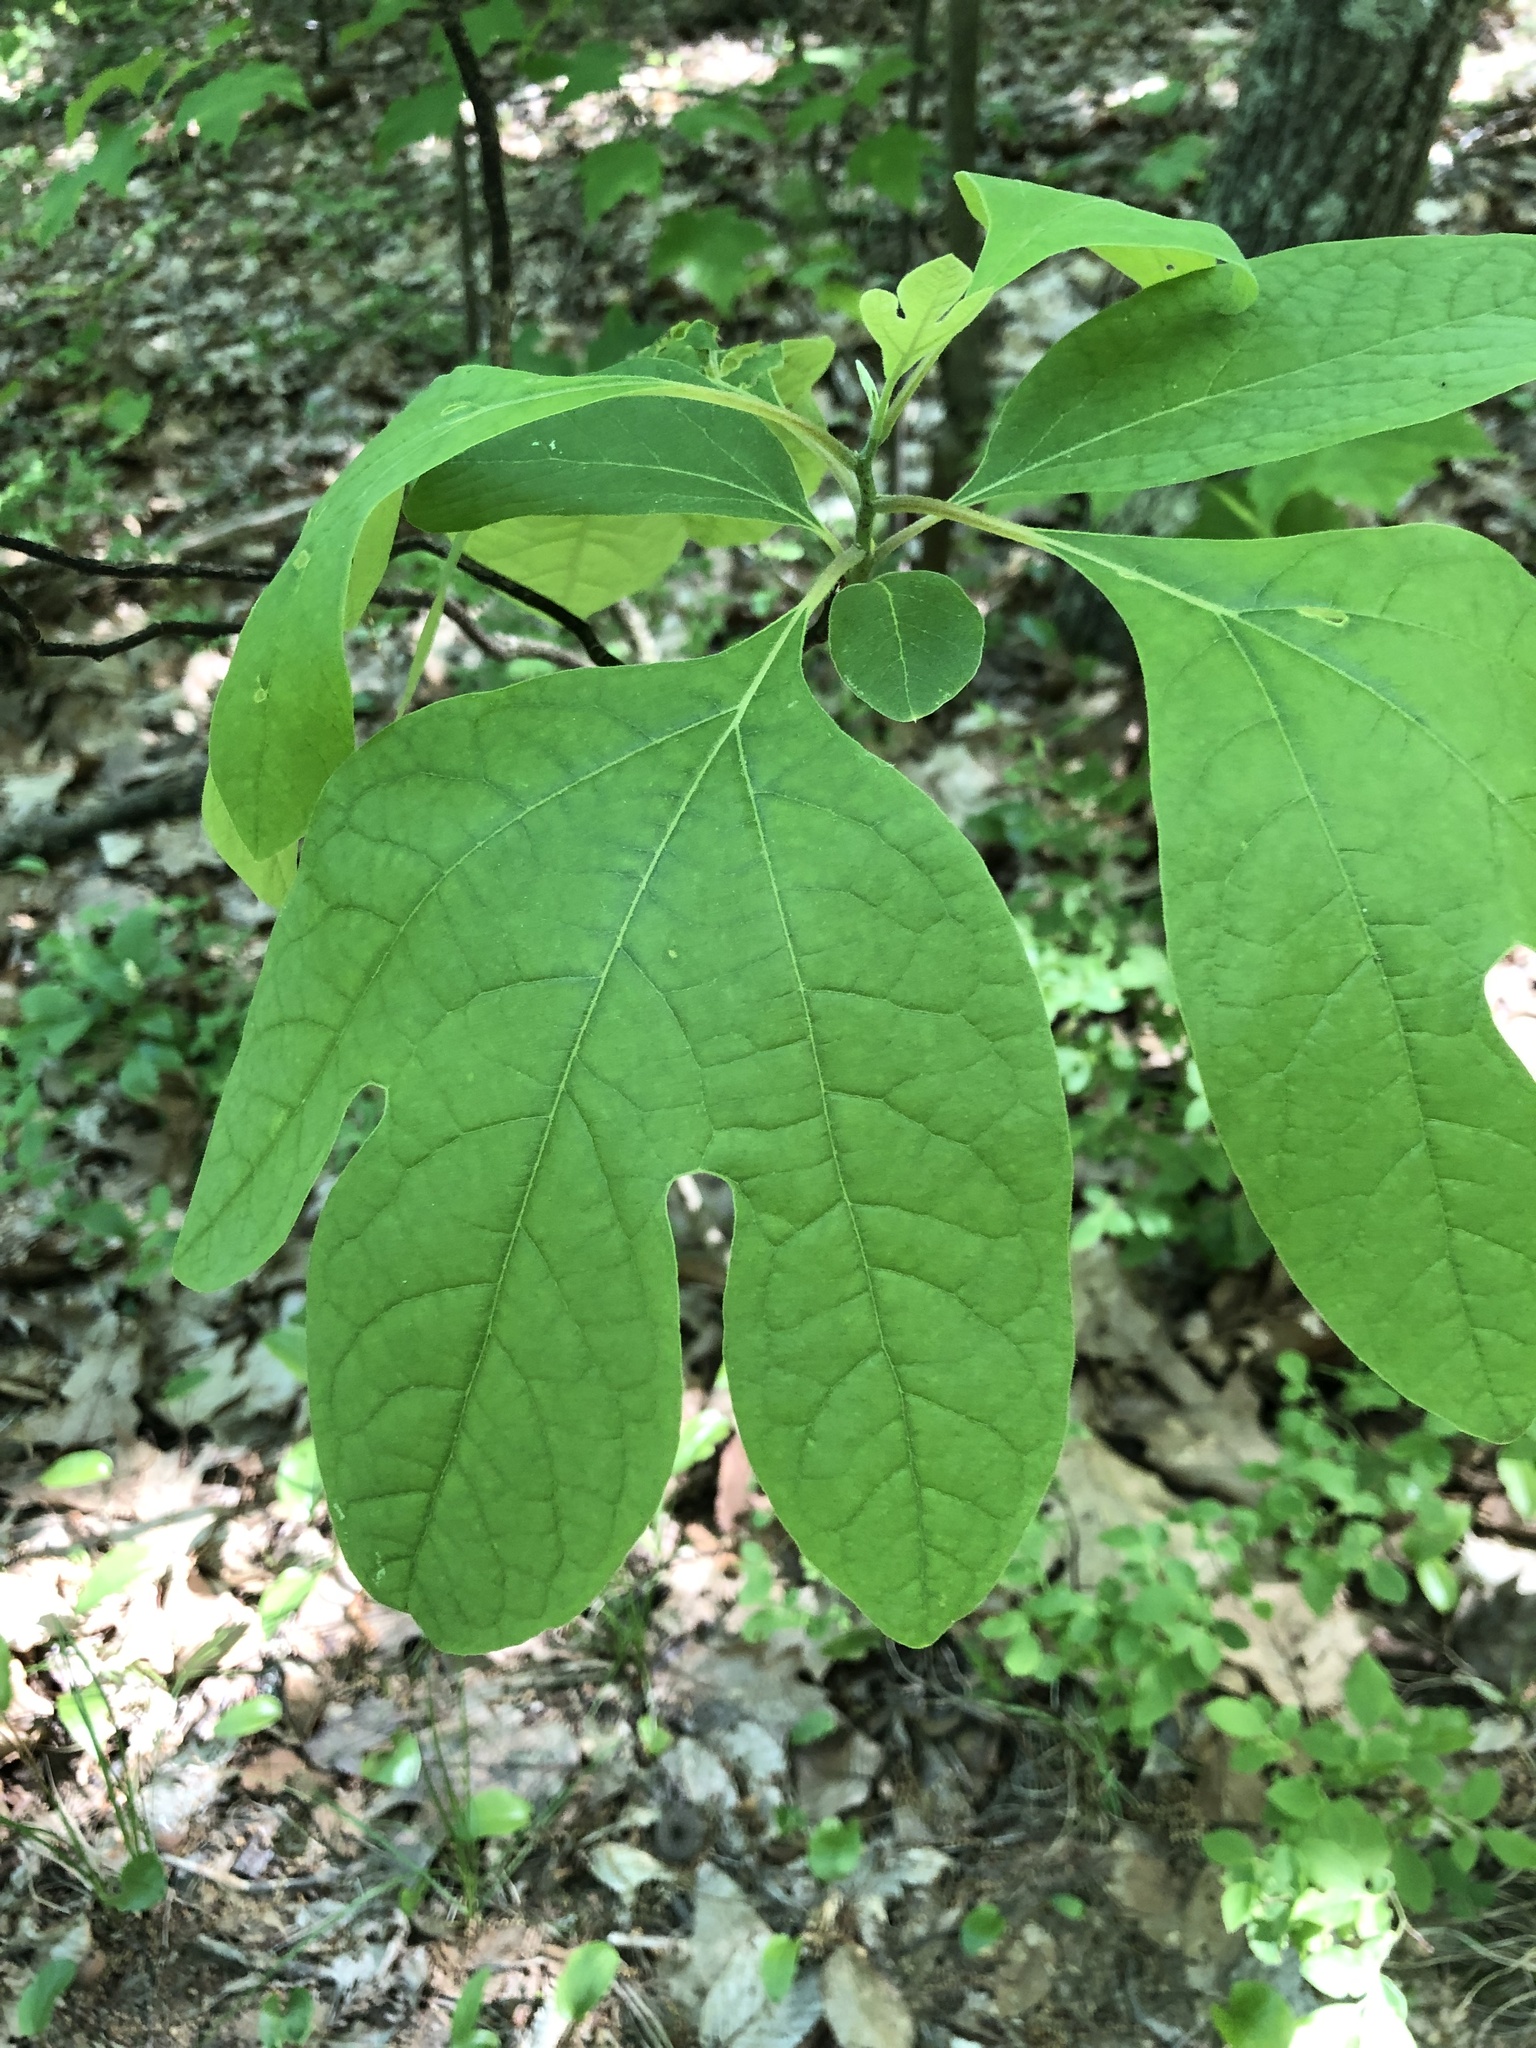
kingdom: Plantae
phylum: Tracheophyta
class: Magnoliopsida
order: Laurales
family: Lauraceae
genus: Sassafras
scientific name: Sassafras albidum
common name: Sassafras
